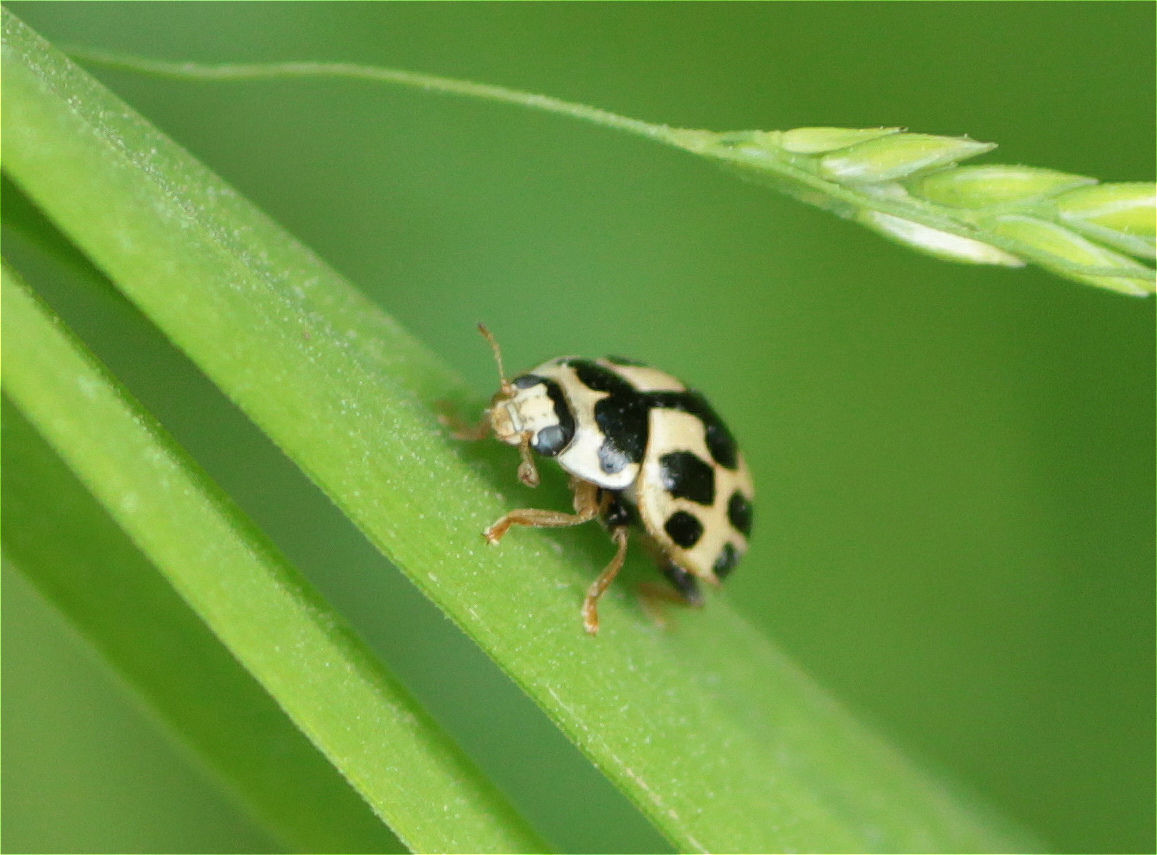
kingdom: Animalia
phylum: Arthropoda
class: Insecta
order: Coleoptera
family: Coccinellidae
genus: Propylaea
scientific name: Propylaea quatuordecimpunctata
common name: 14-spotted ladybird beetle
